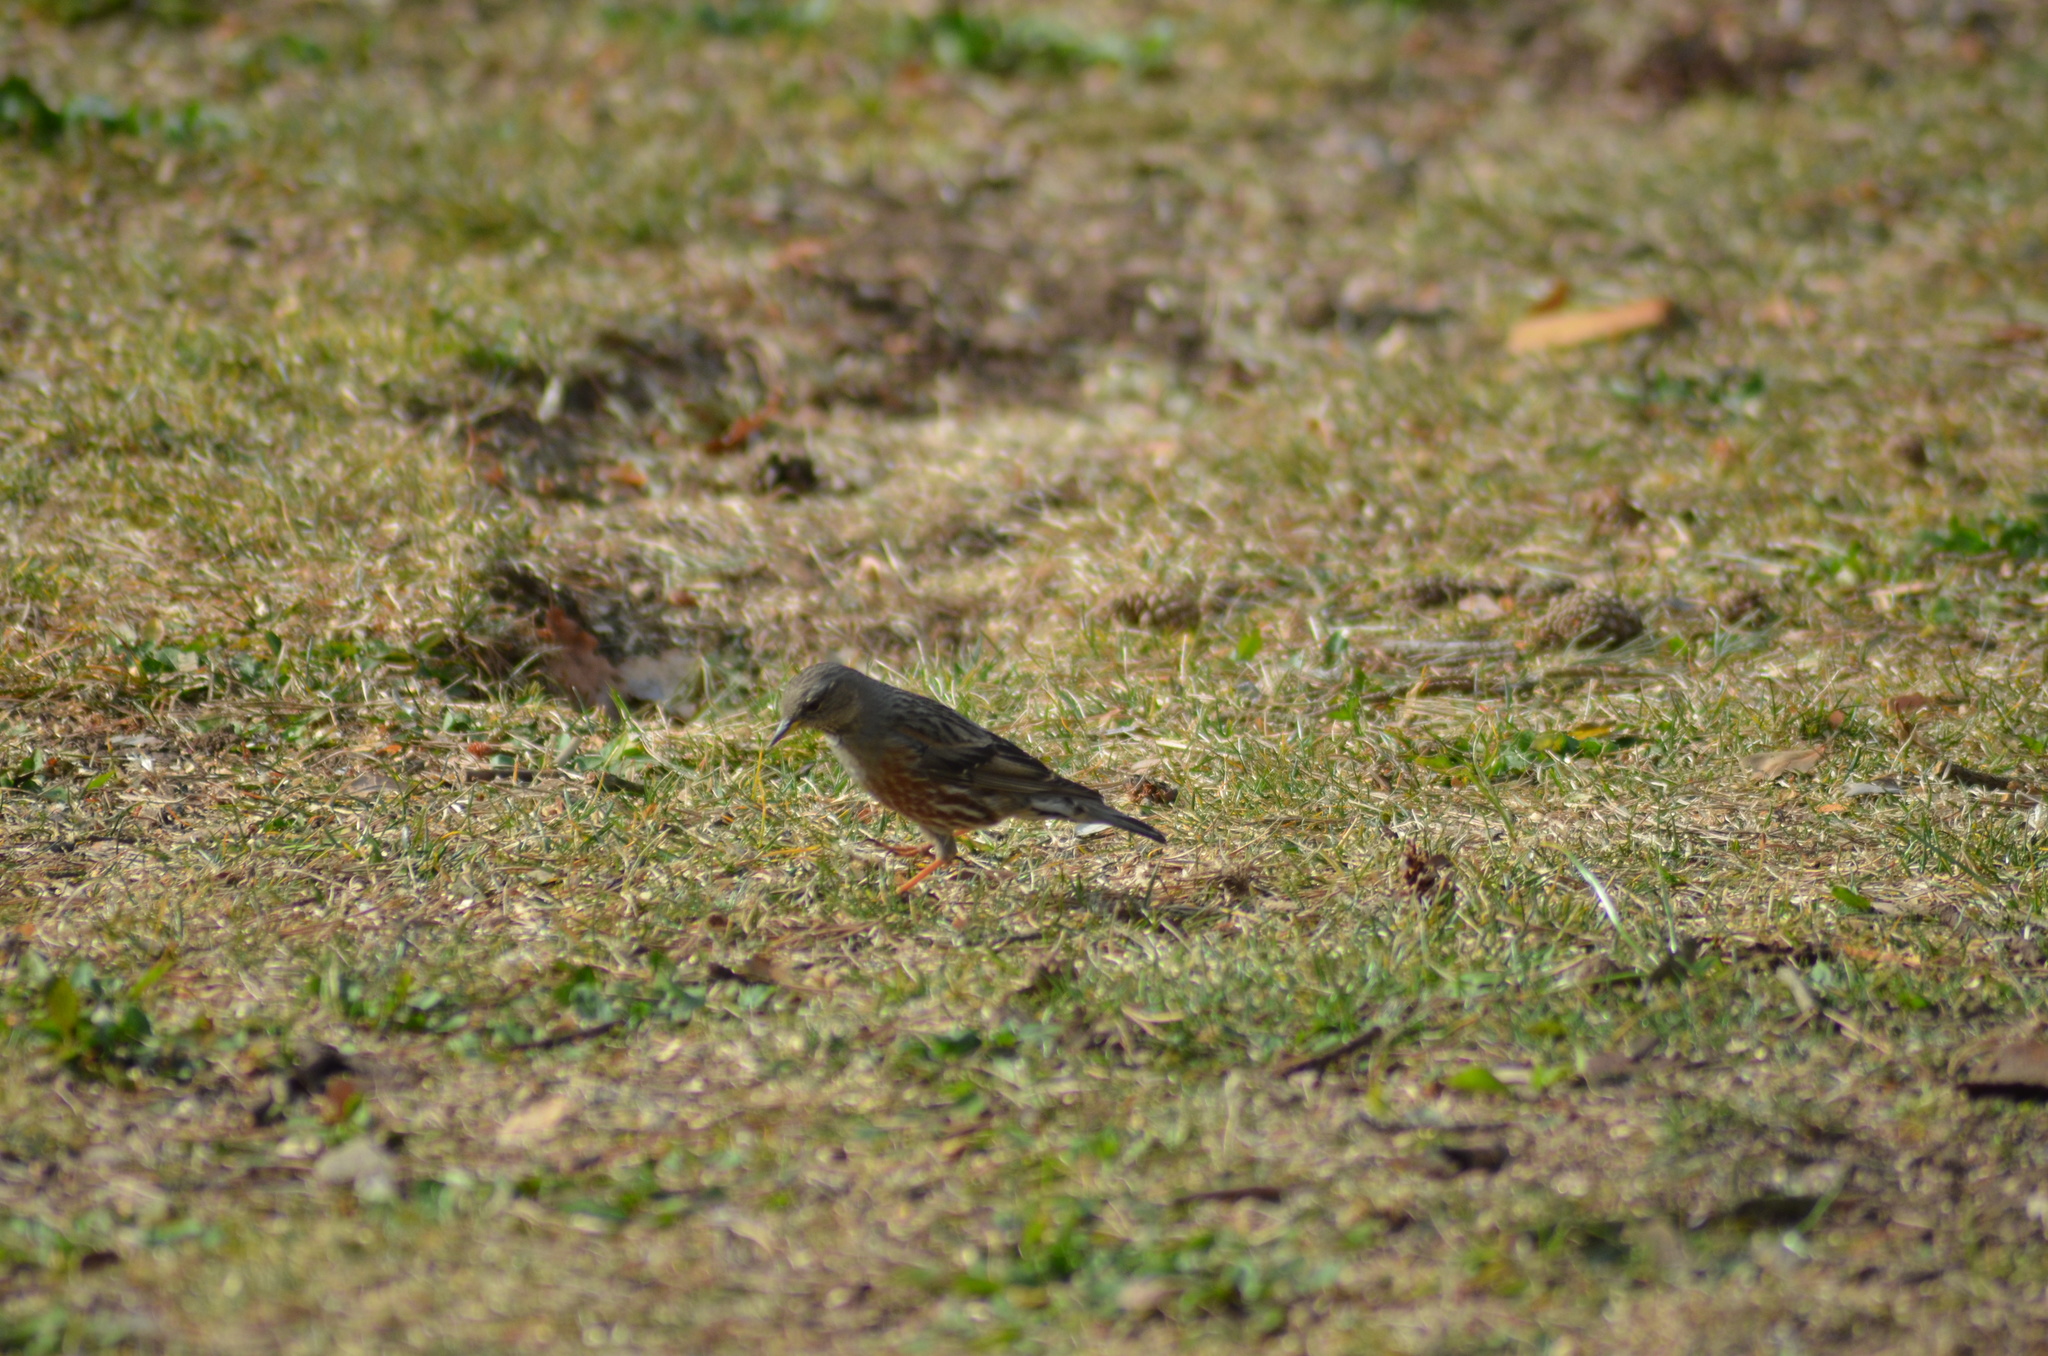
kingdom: Animalia
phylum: Chordata
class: Aves
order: Passeriformes
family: Prunellidae
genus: Prunella
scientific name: Prunella collaris
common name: Alpine accentor
